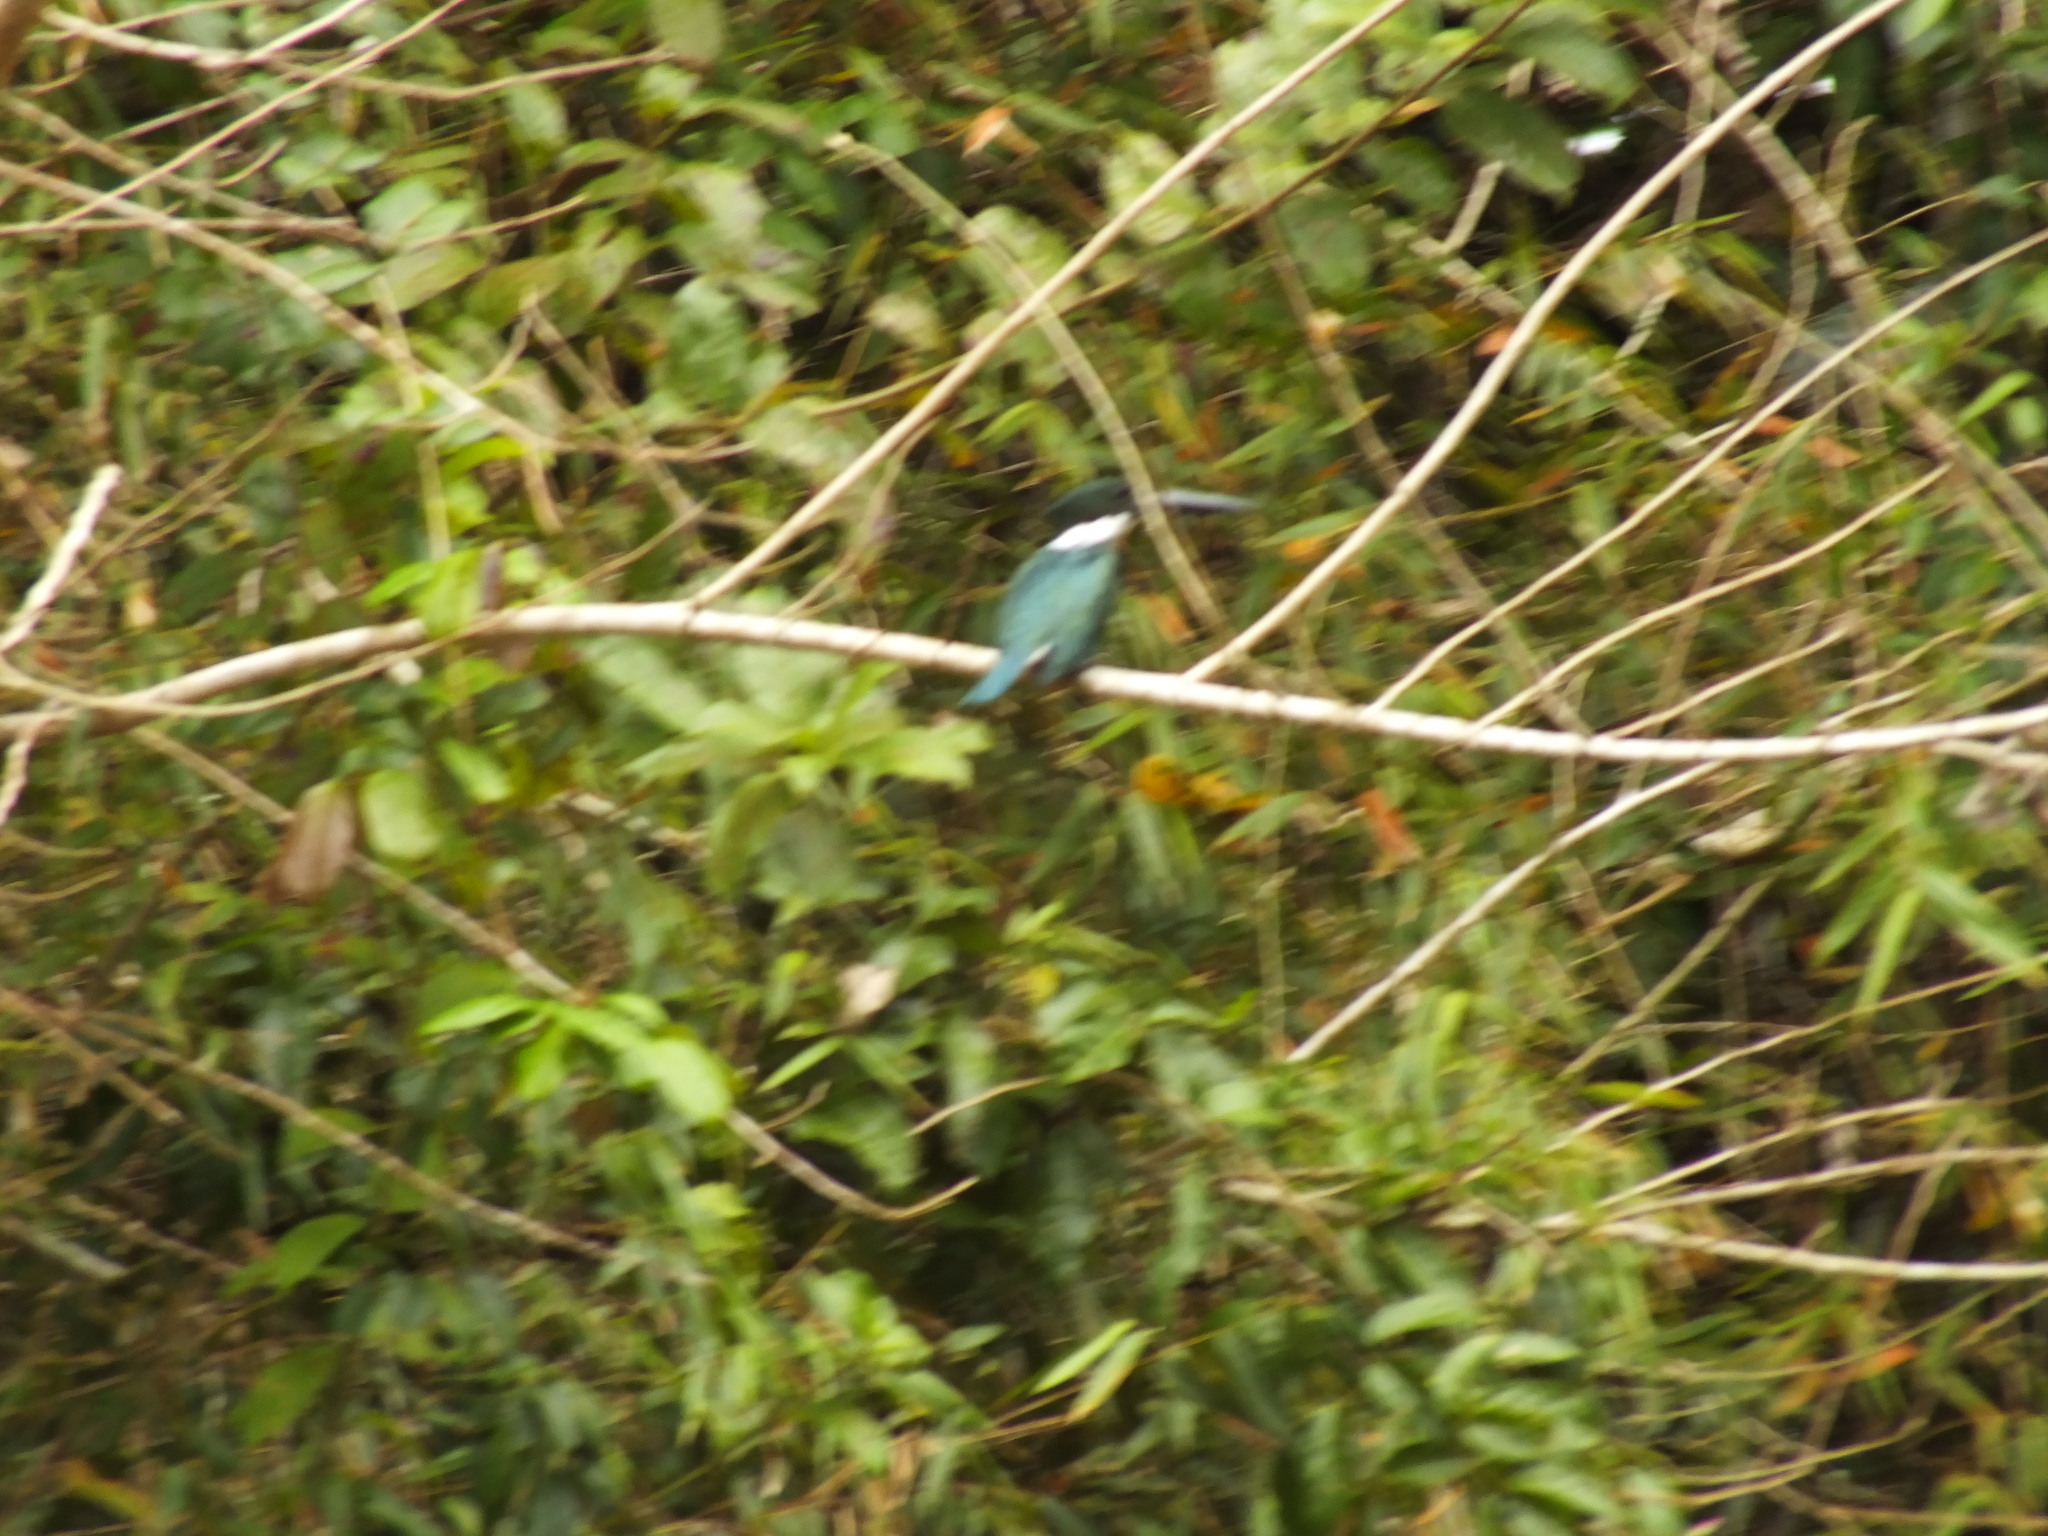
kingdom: Animalia
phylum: Chordata
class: Aves
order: Coraciiformes
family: Alcedinidae
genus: Chloroceryle
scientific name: Chloroceryle amazona
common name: Amazon kingfisher
